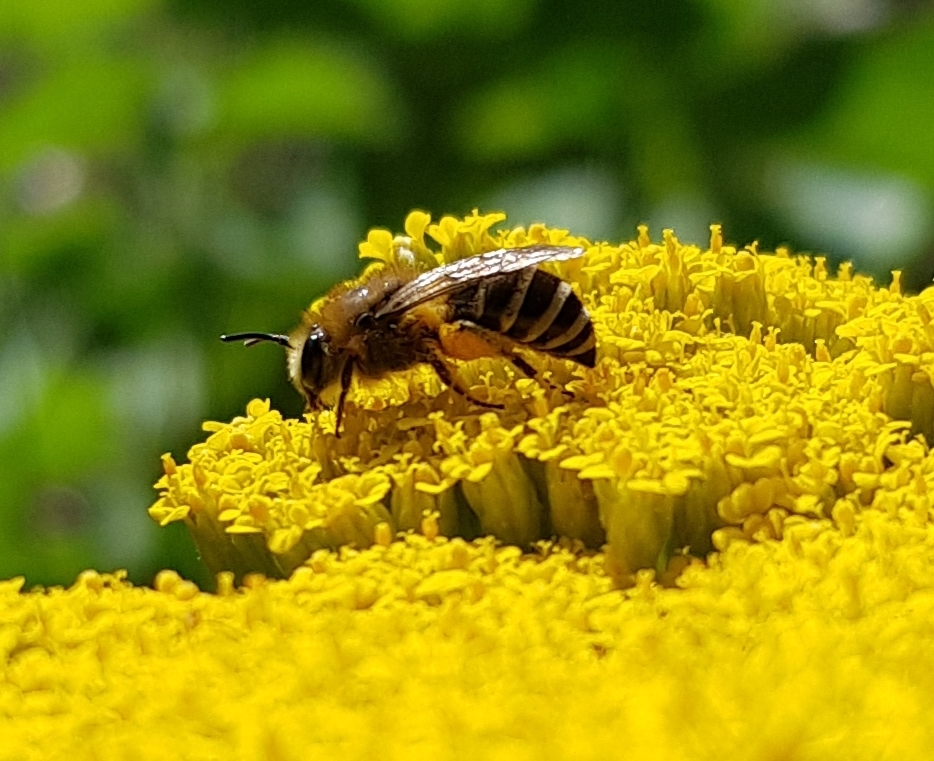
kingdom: Animalia
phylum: Arthropoda
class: Insecta
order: Hymenoptera
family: Colletidae
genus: Colletes
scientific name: Colletes
